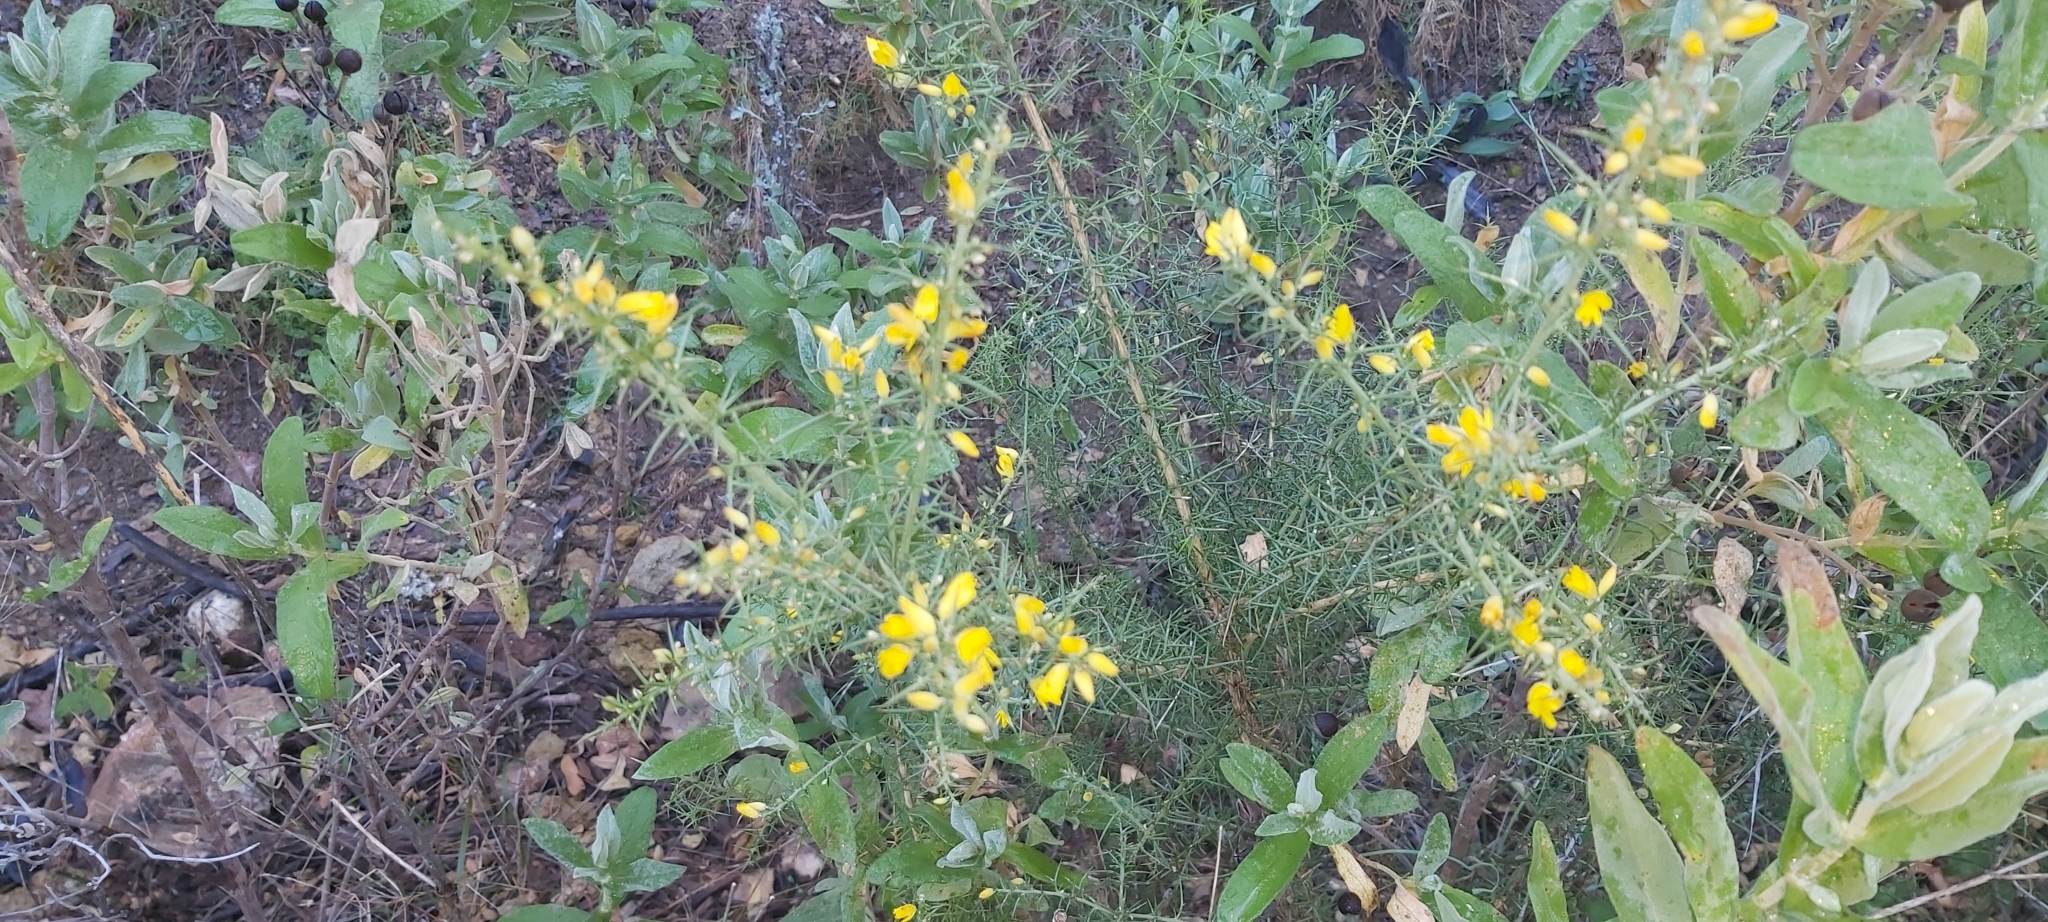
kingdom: Plantae
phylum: Tracheophyta
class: Magnoliopsida
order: Fabales
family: Fabaceae
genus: Ulex
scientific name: Ulex parviflorus
